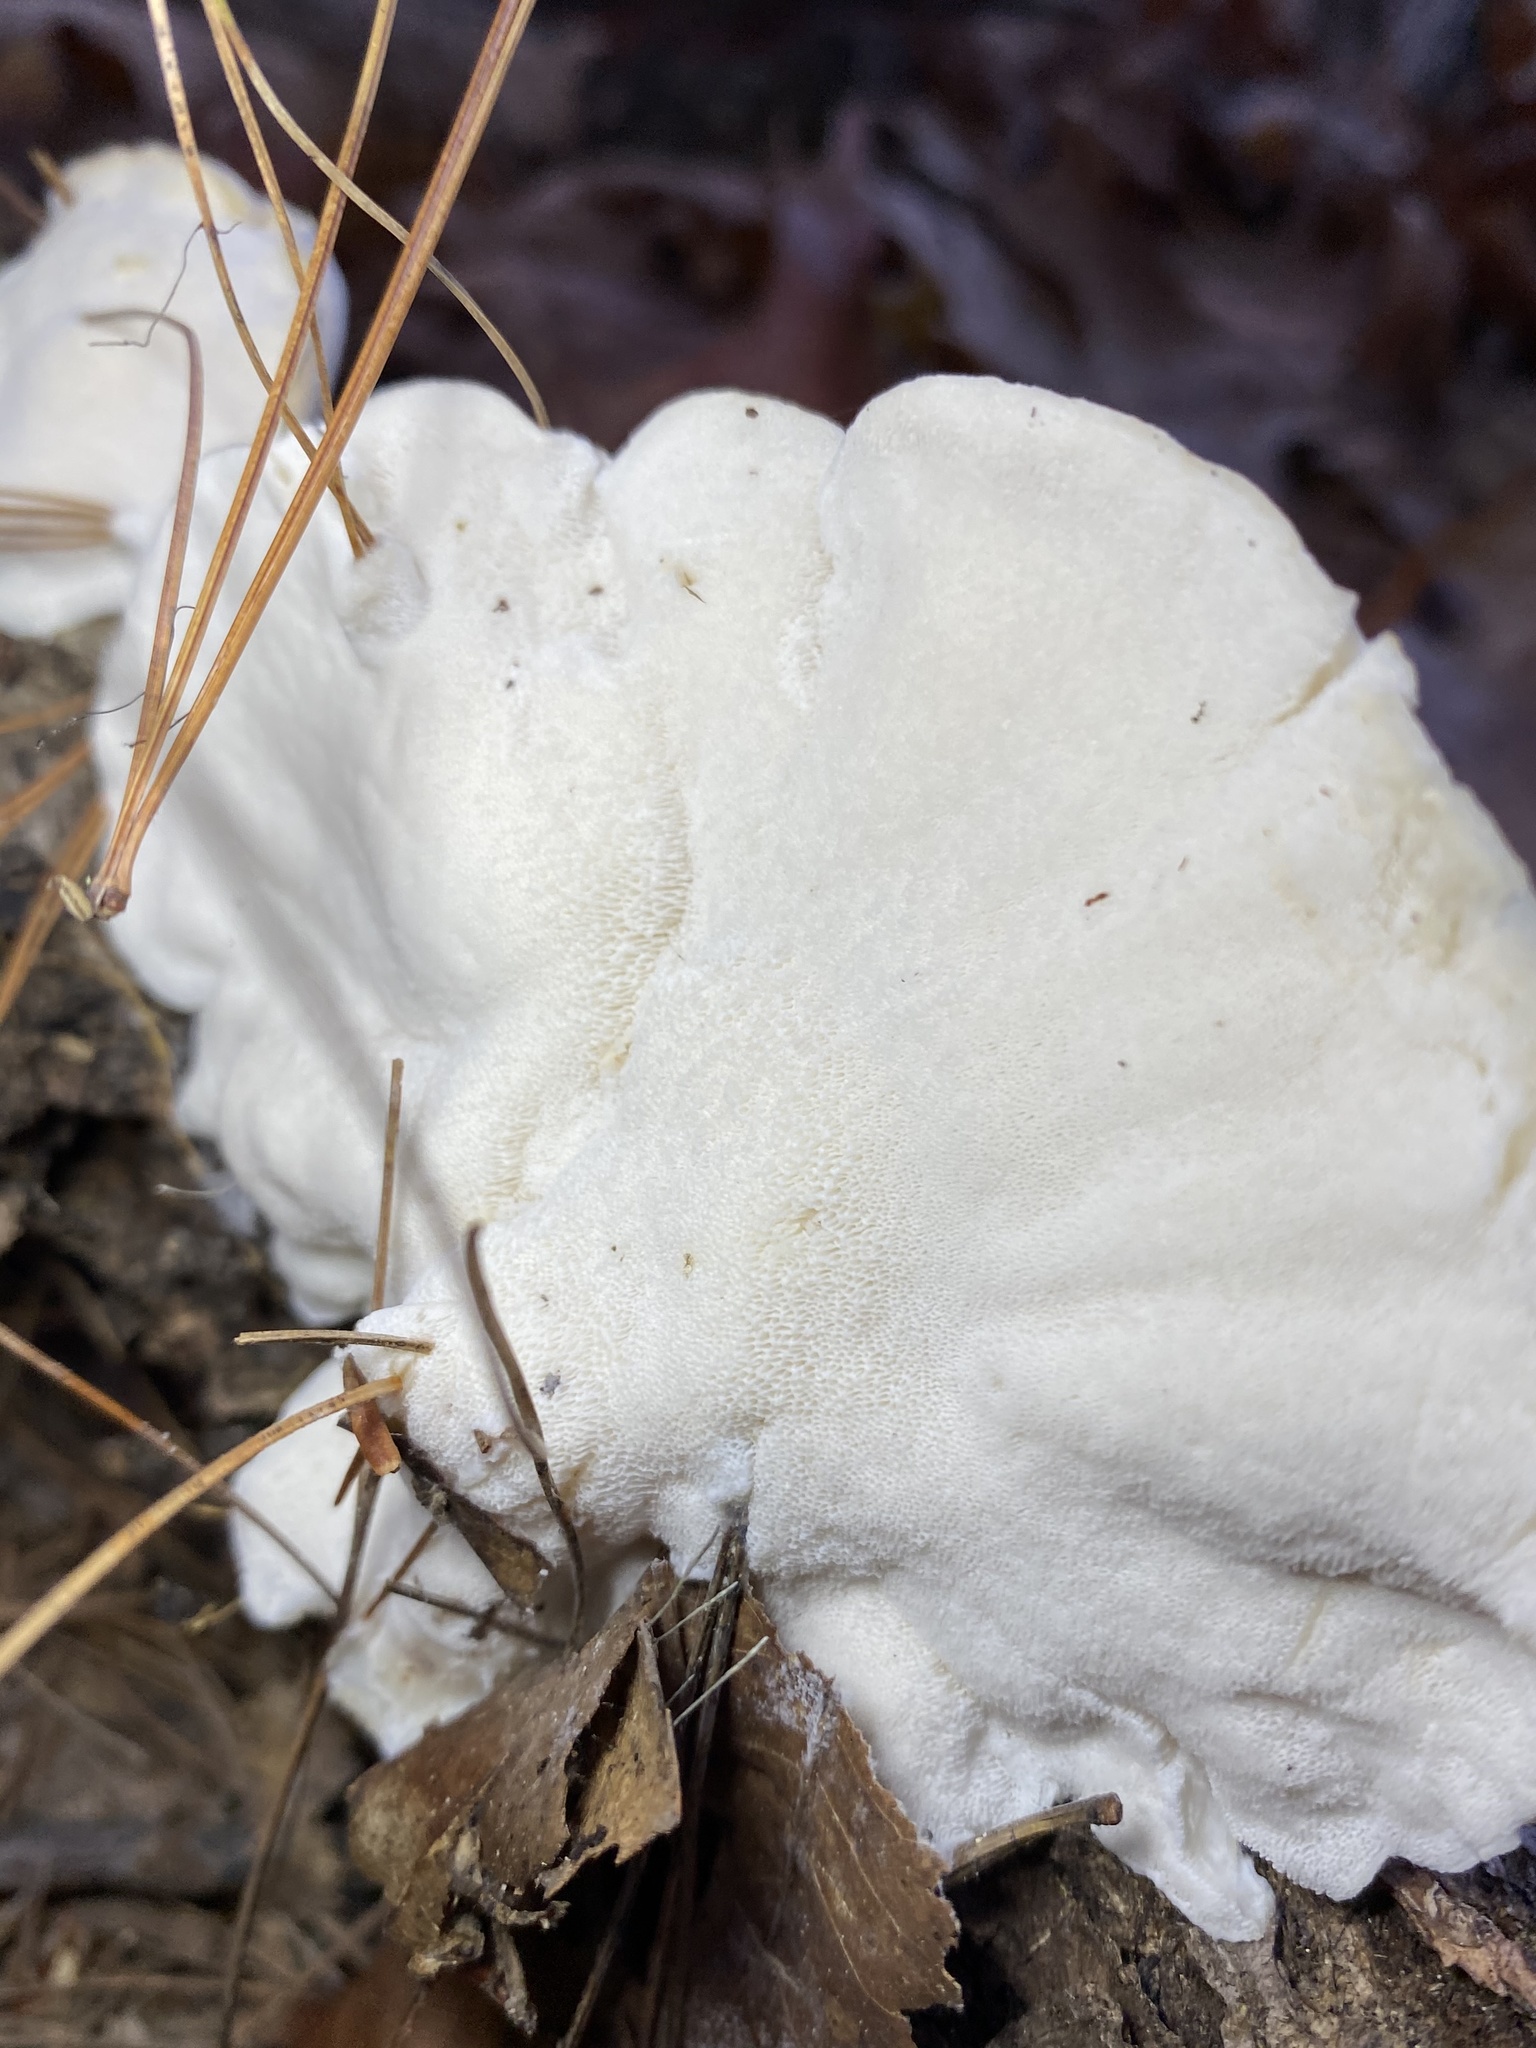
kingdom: Fungi
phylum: Basidiomycota
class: Agaricomycetes
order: Polyporales
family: Incrustoporiaceae
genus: Tyromyces
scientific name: Tyromyces chioneus
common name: White cheese polypore
